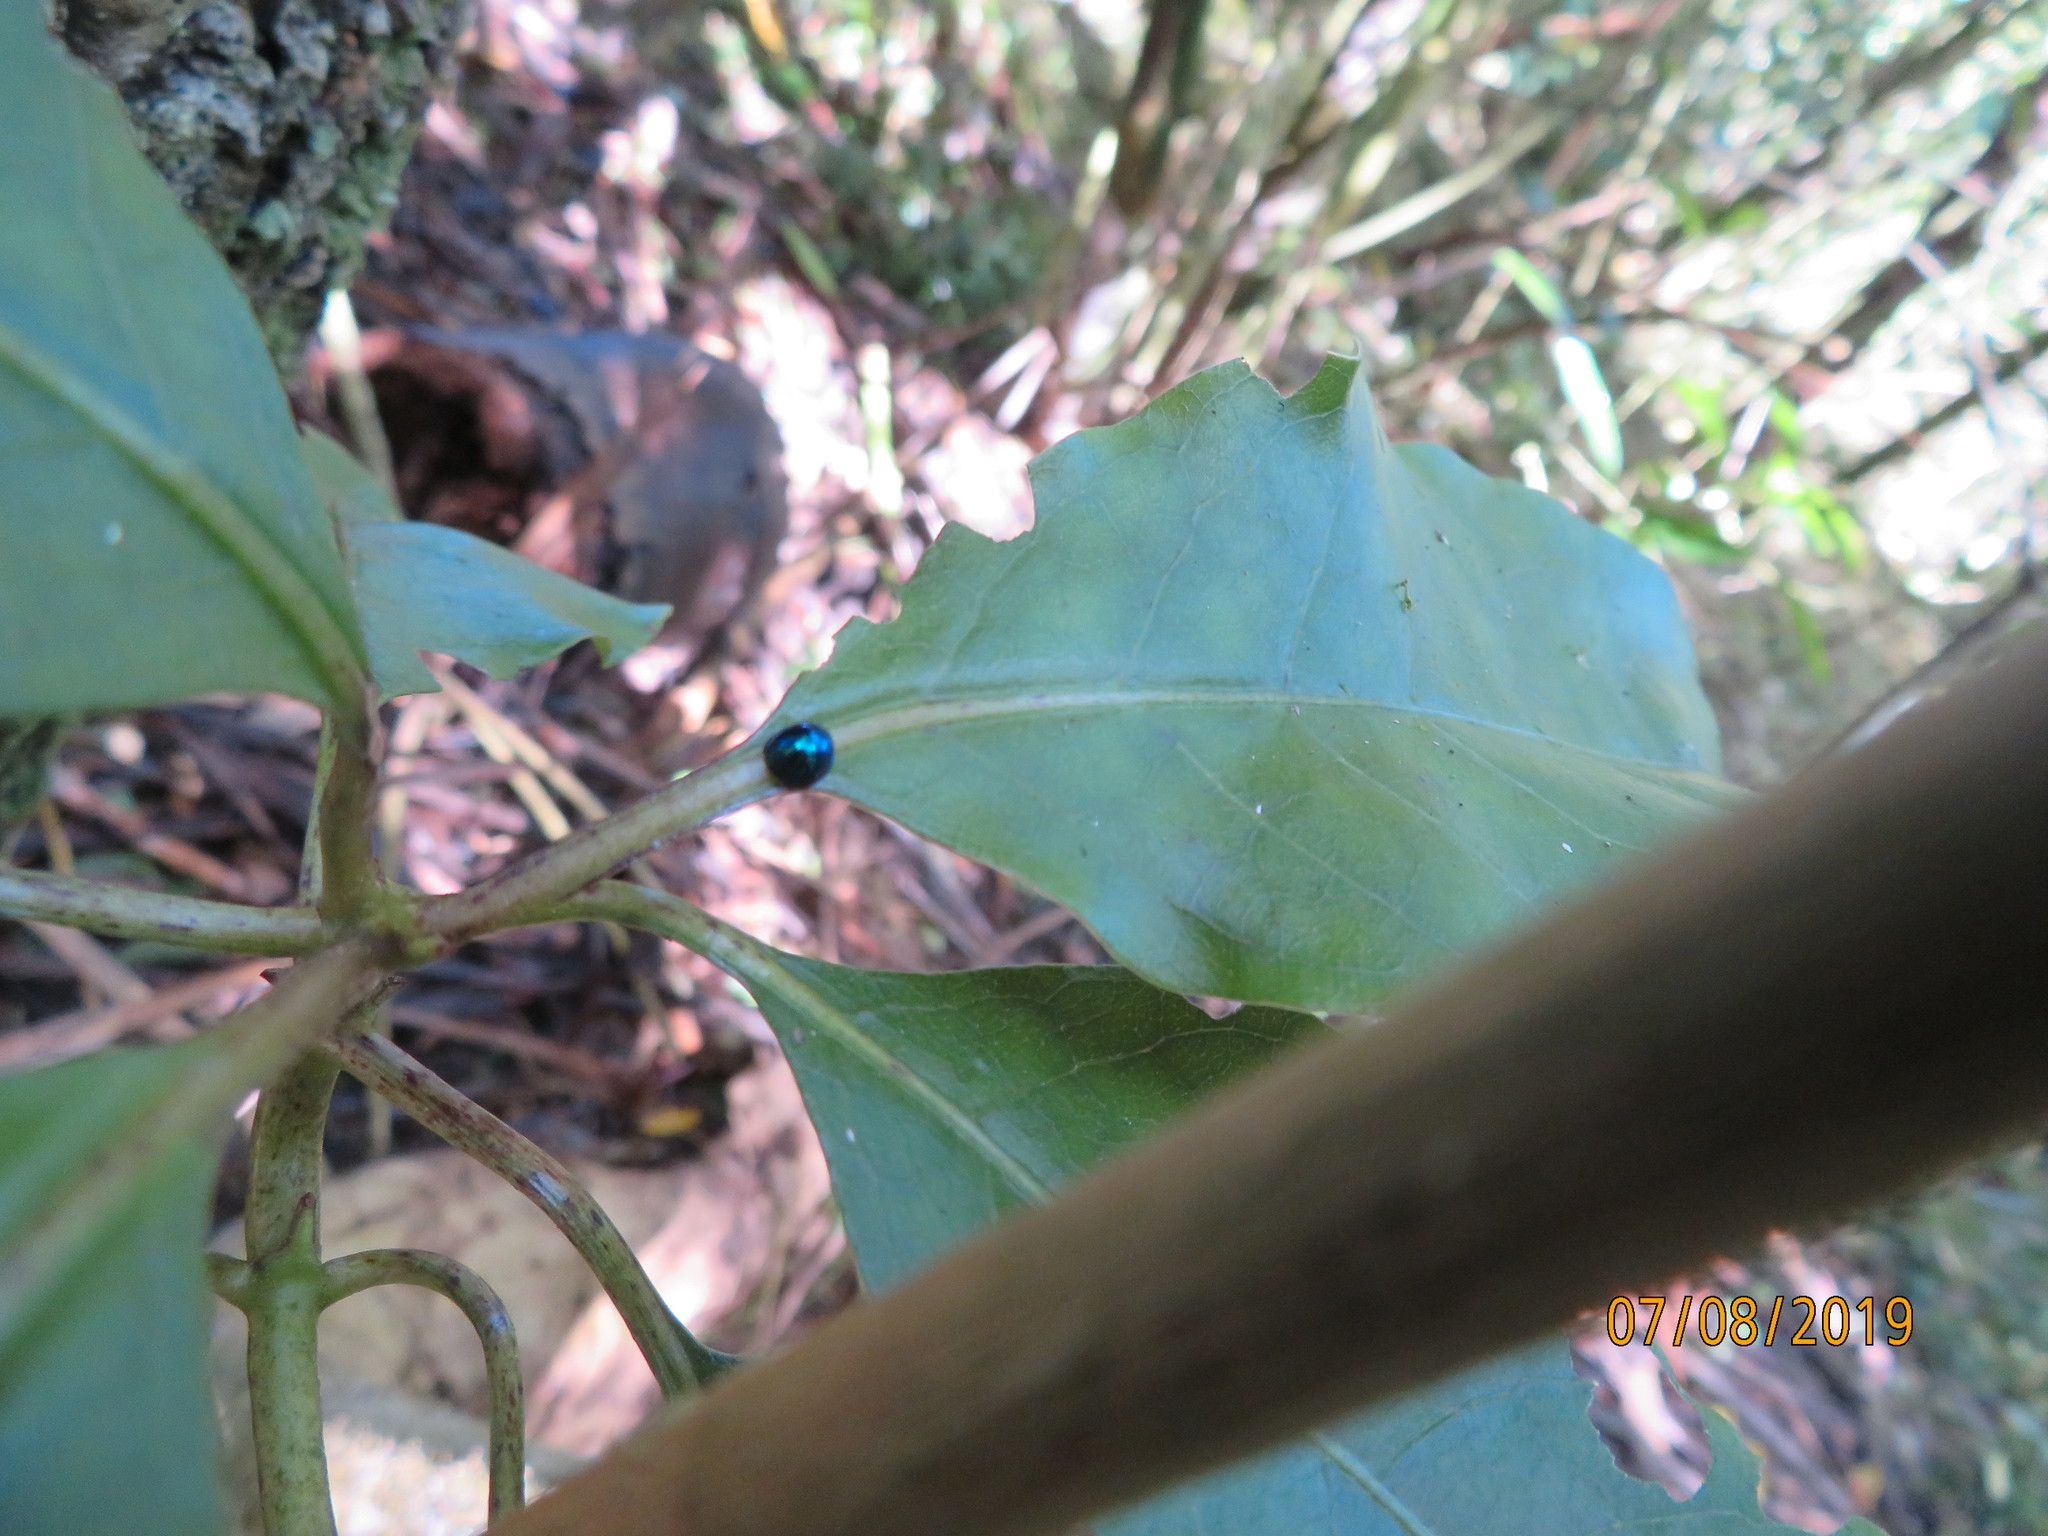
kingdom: Animalia
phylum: Arthropoda
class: Insecta
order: Coleoptera
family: Coccinellidae
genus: Halmus
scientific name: Halmus chalybeus
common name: Steel blue ladybird beetle
